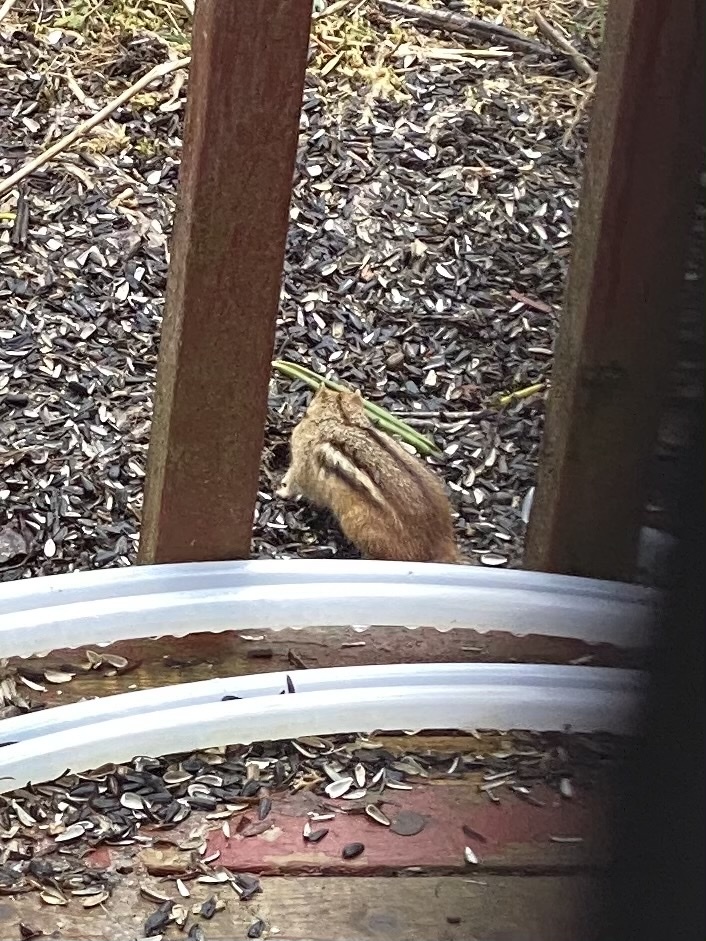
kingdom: Animalia
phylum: Chordata
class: Mammalia
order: Rodentia
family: Sciuridae
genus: Tamias
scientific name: Tamias striatus
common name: Eastern chipmunk
